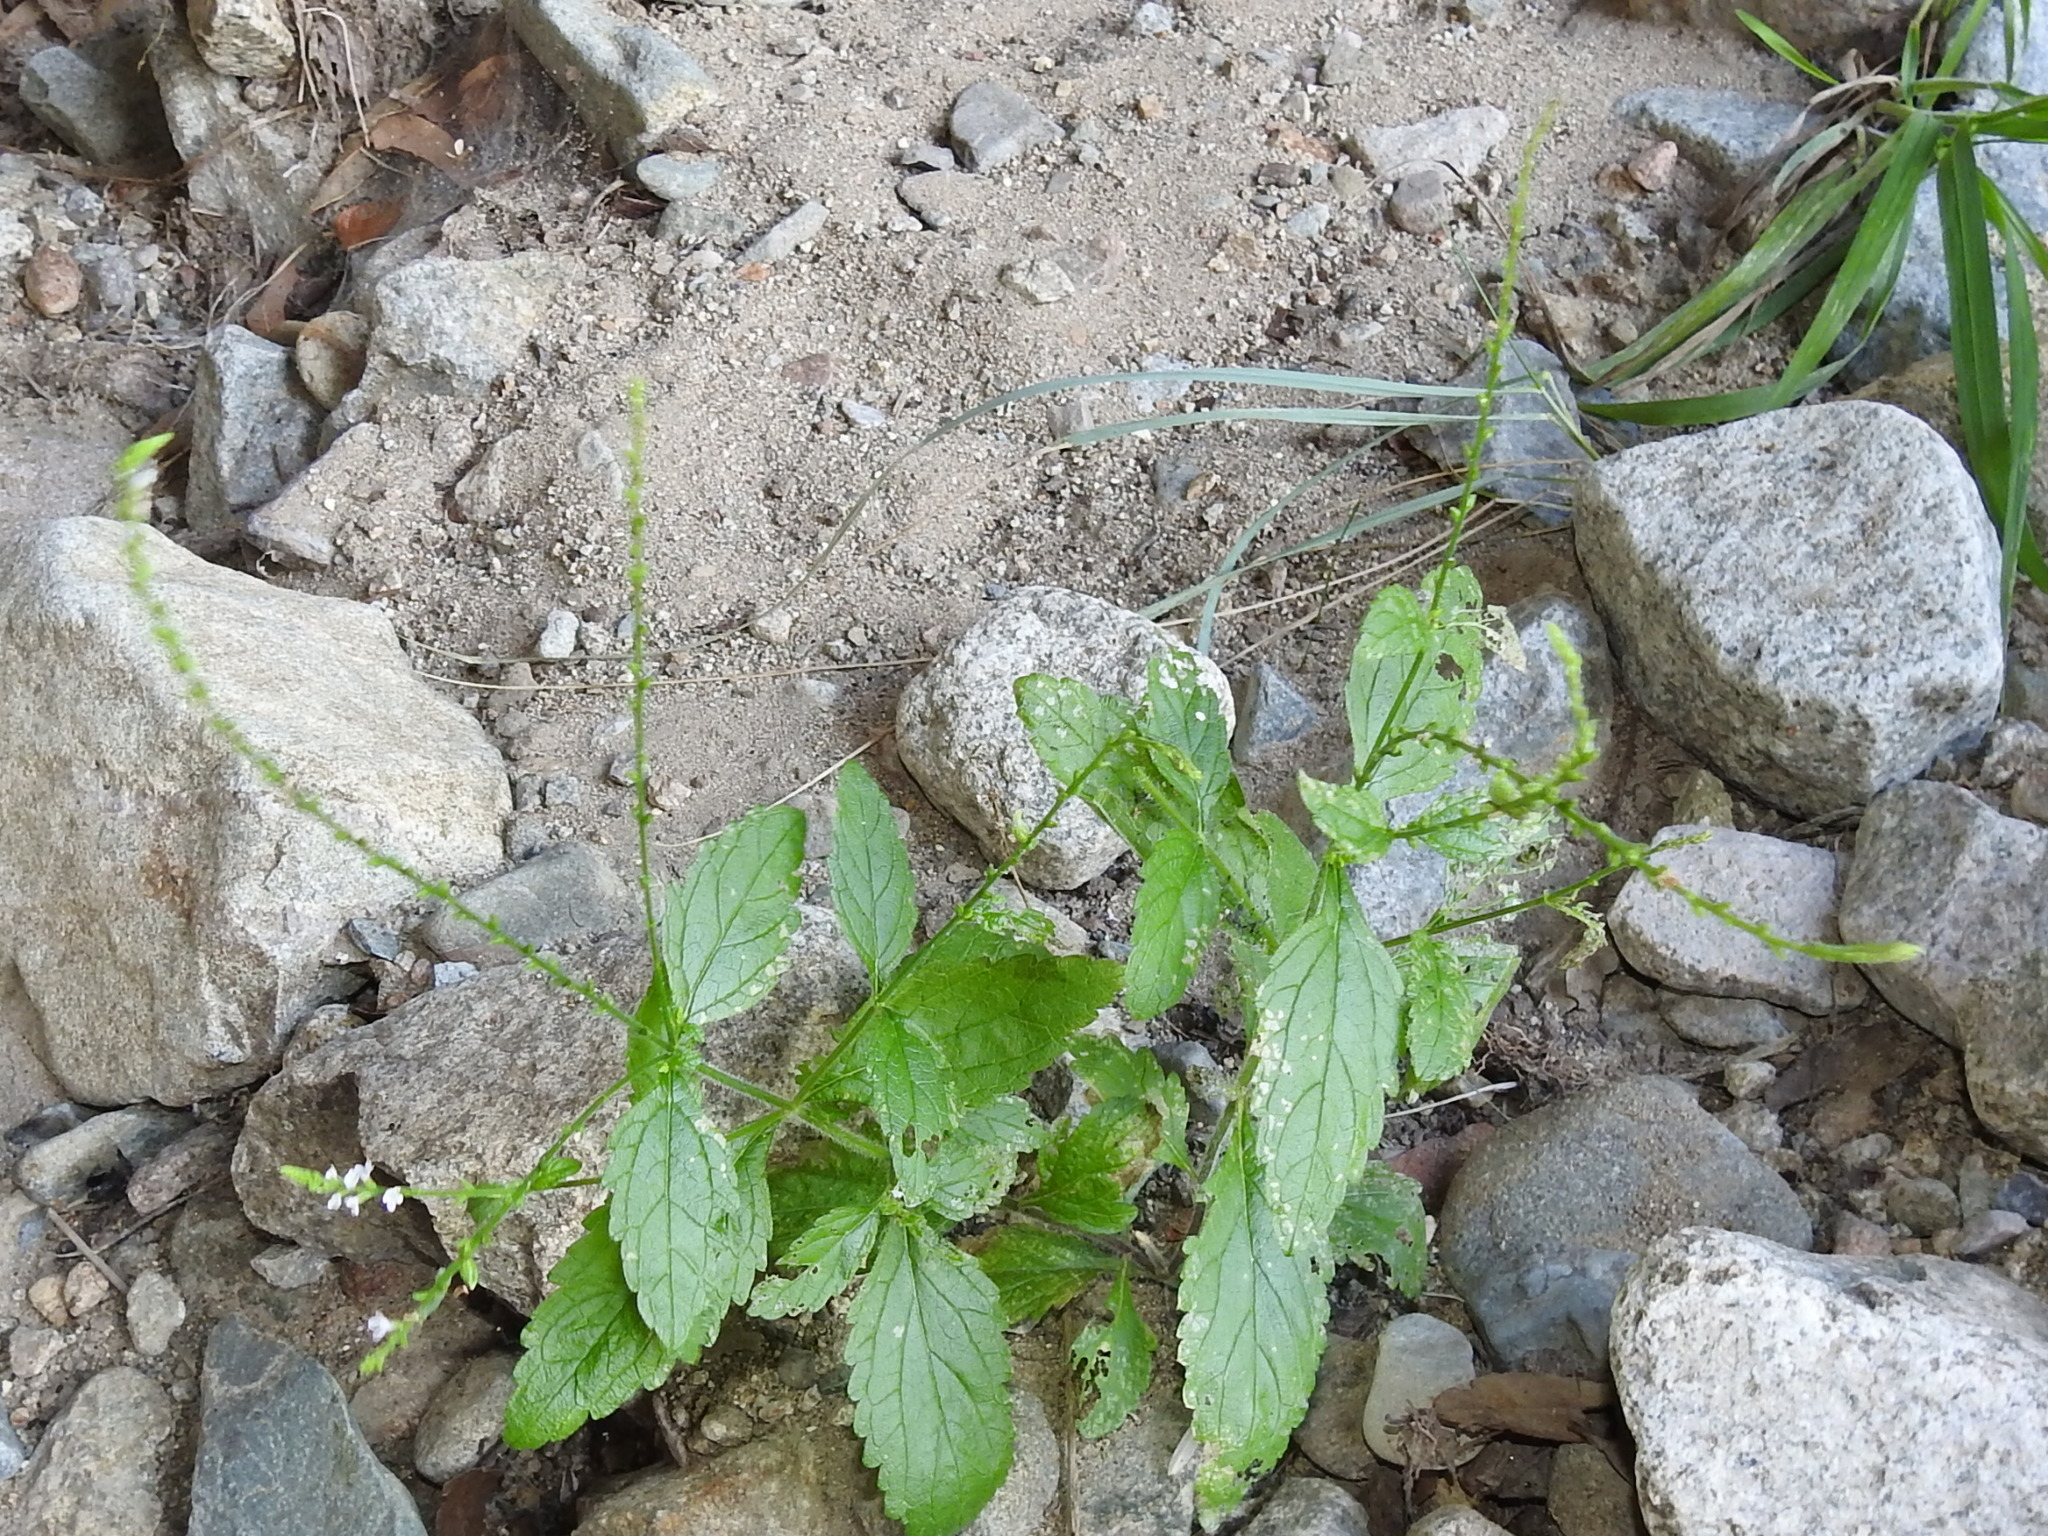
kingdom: Plantae
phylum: Tracheophyta
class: Magnoliopsida
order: Lamiales
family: Verbenaceae
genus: Verbena
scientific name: Verbena carolina
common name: Carolina vervain
